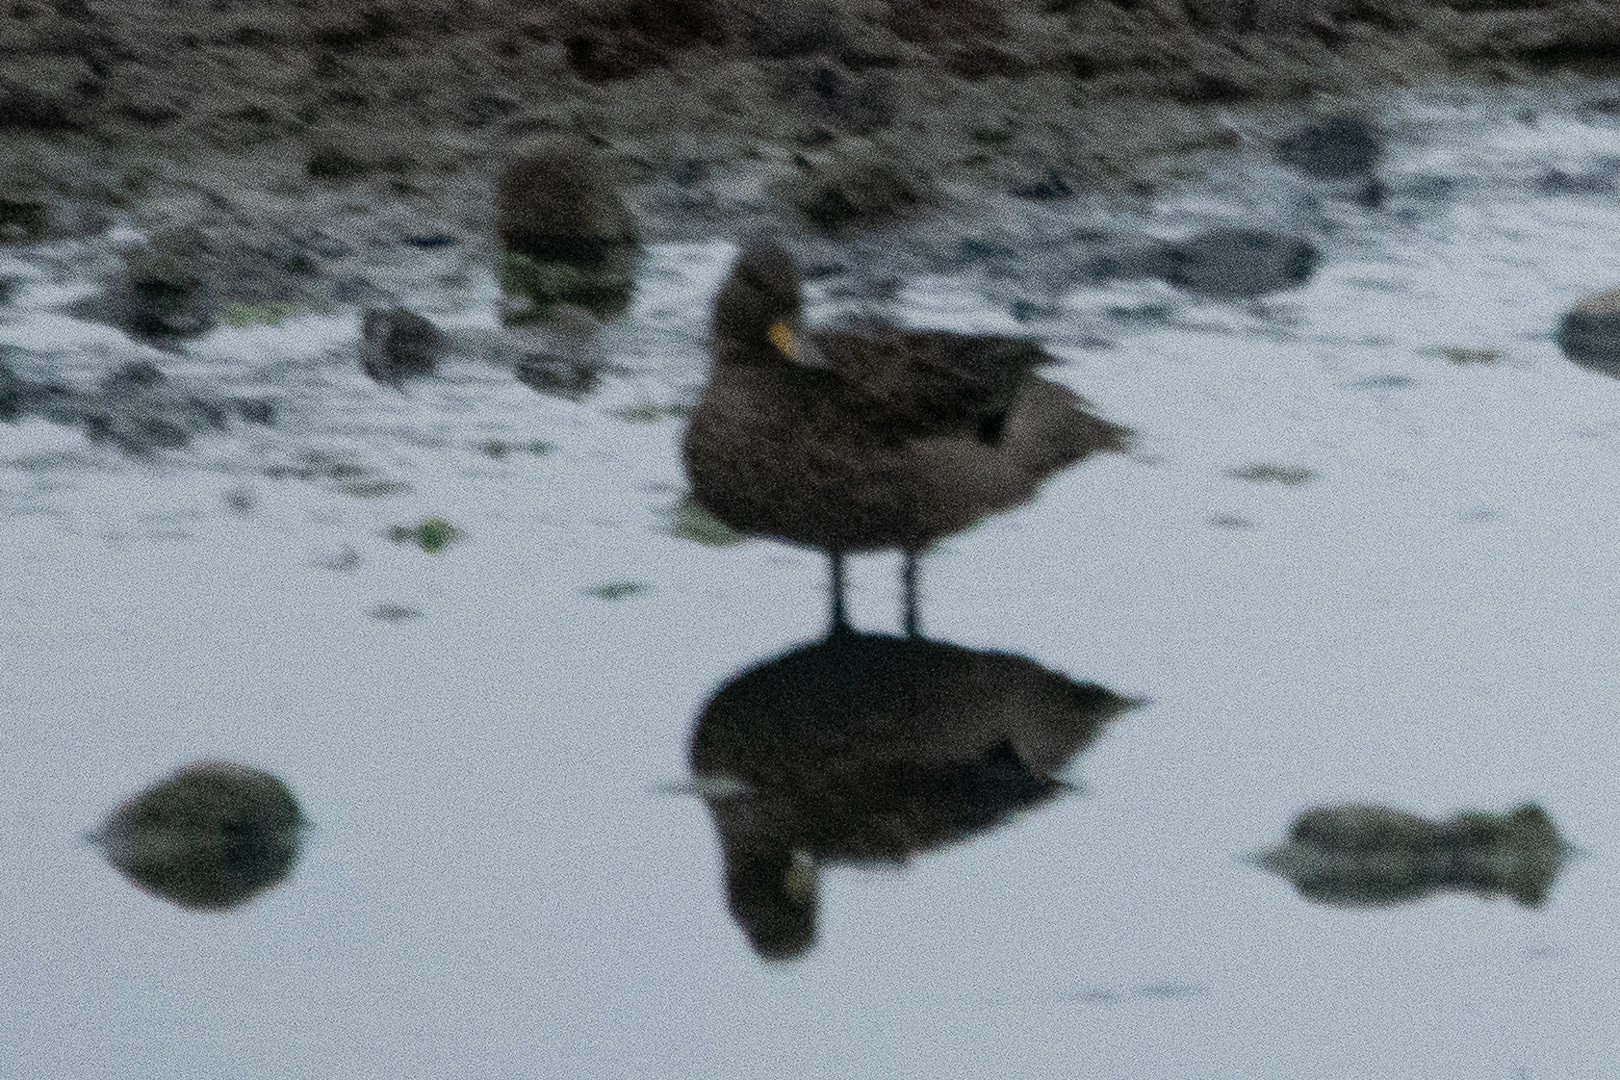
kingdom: Animalia
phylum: Chordata
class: Aves
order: Anseriformes
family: Anatidae
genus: Anas
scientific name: Anas flavirostris
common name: Yellow-billed teal
